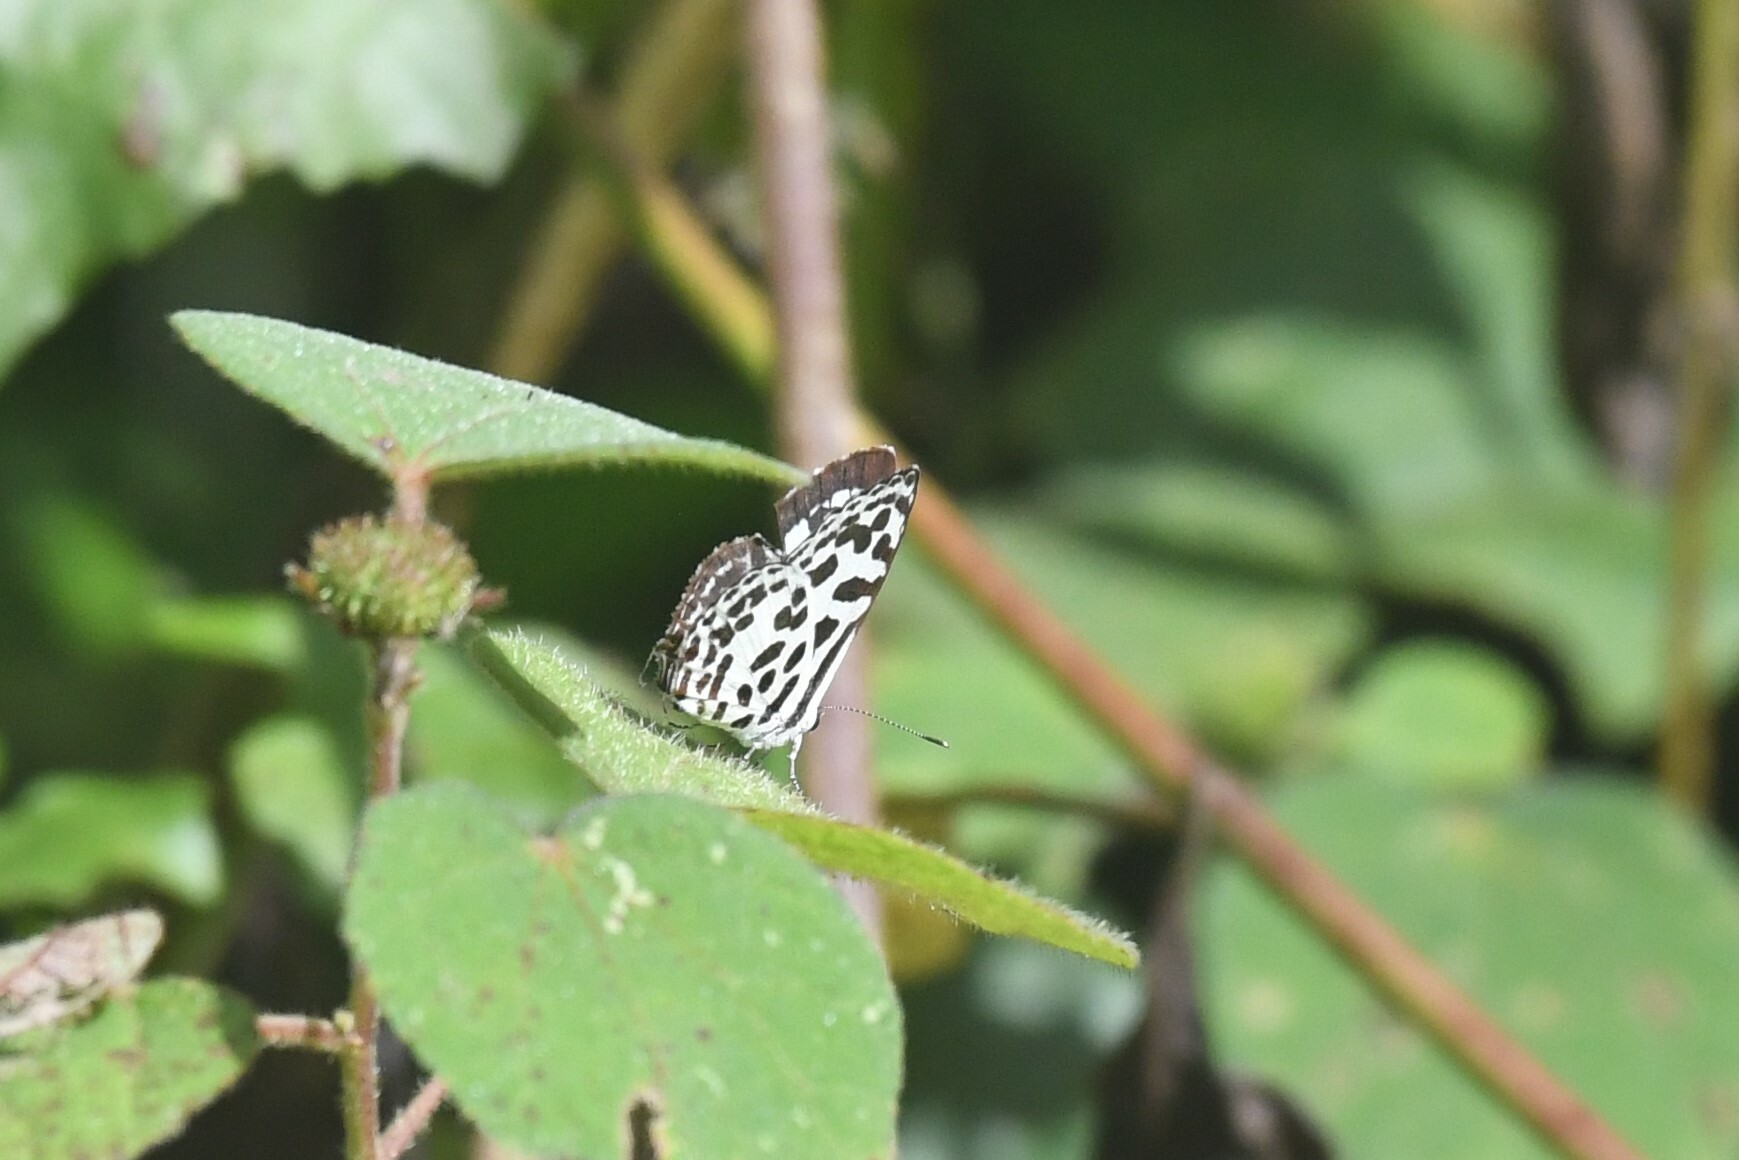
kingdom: Animalia
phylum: Arthropoda
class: Insecta
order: Lepidoptera
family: Lycaenidae
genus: Castalius
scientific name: Castalius rosimon
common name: Common pierrot
